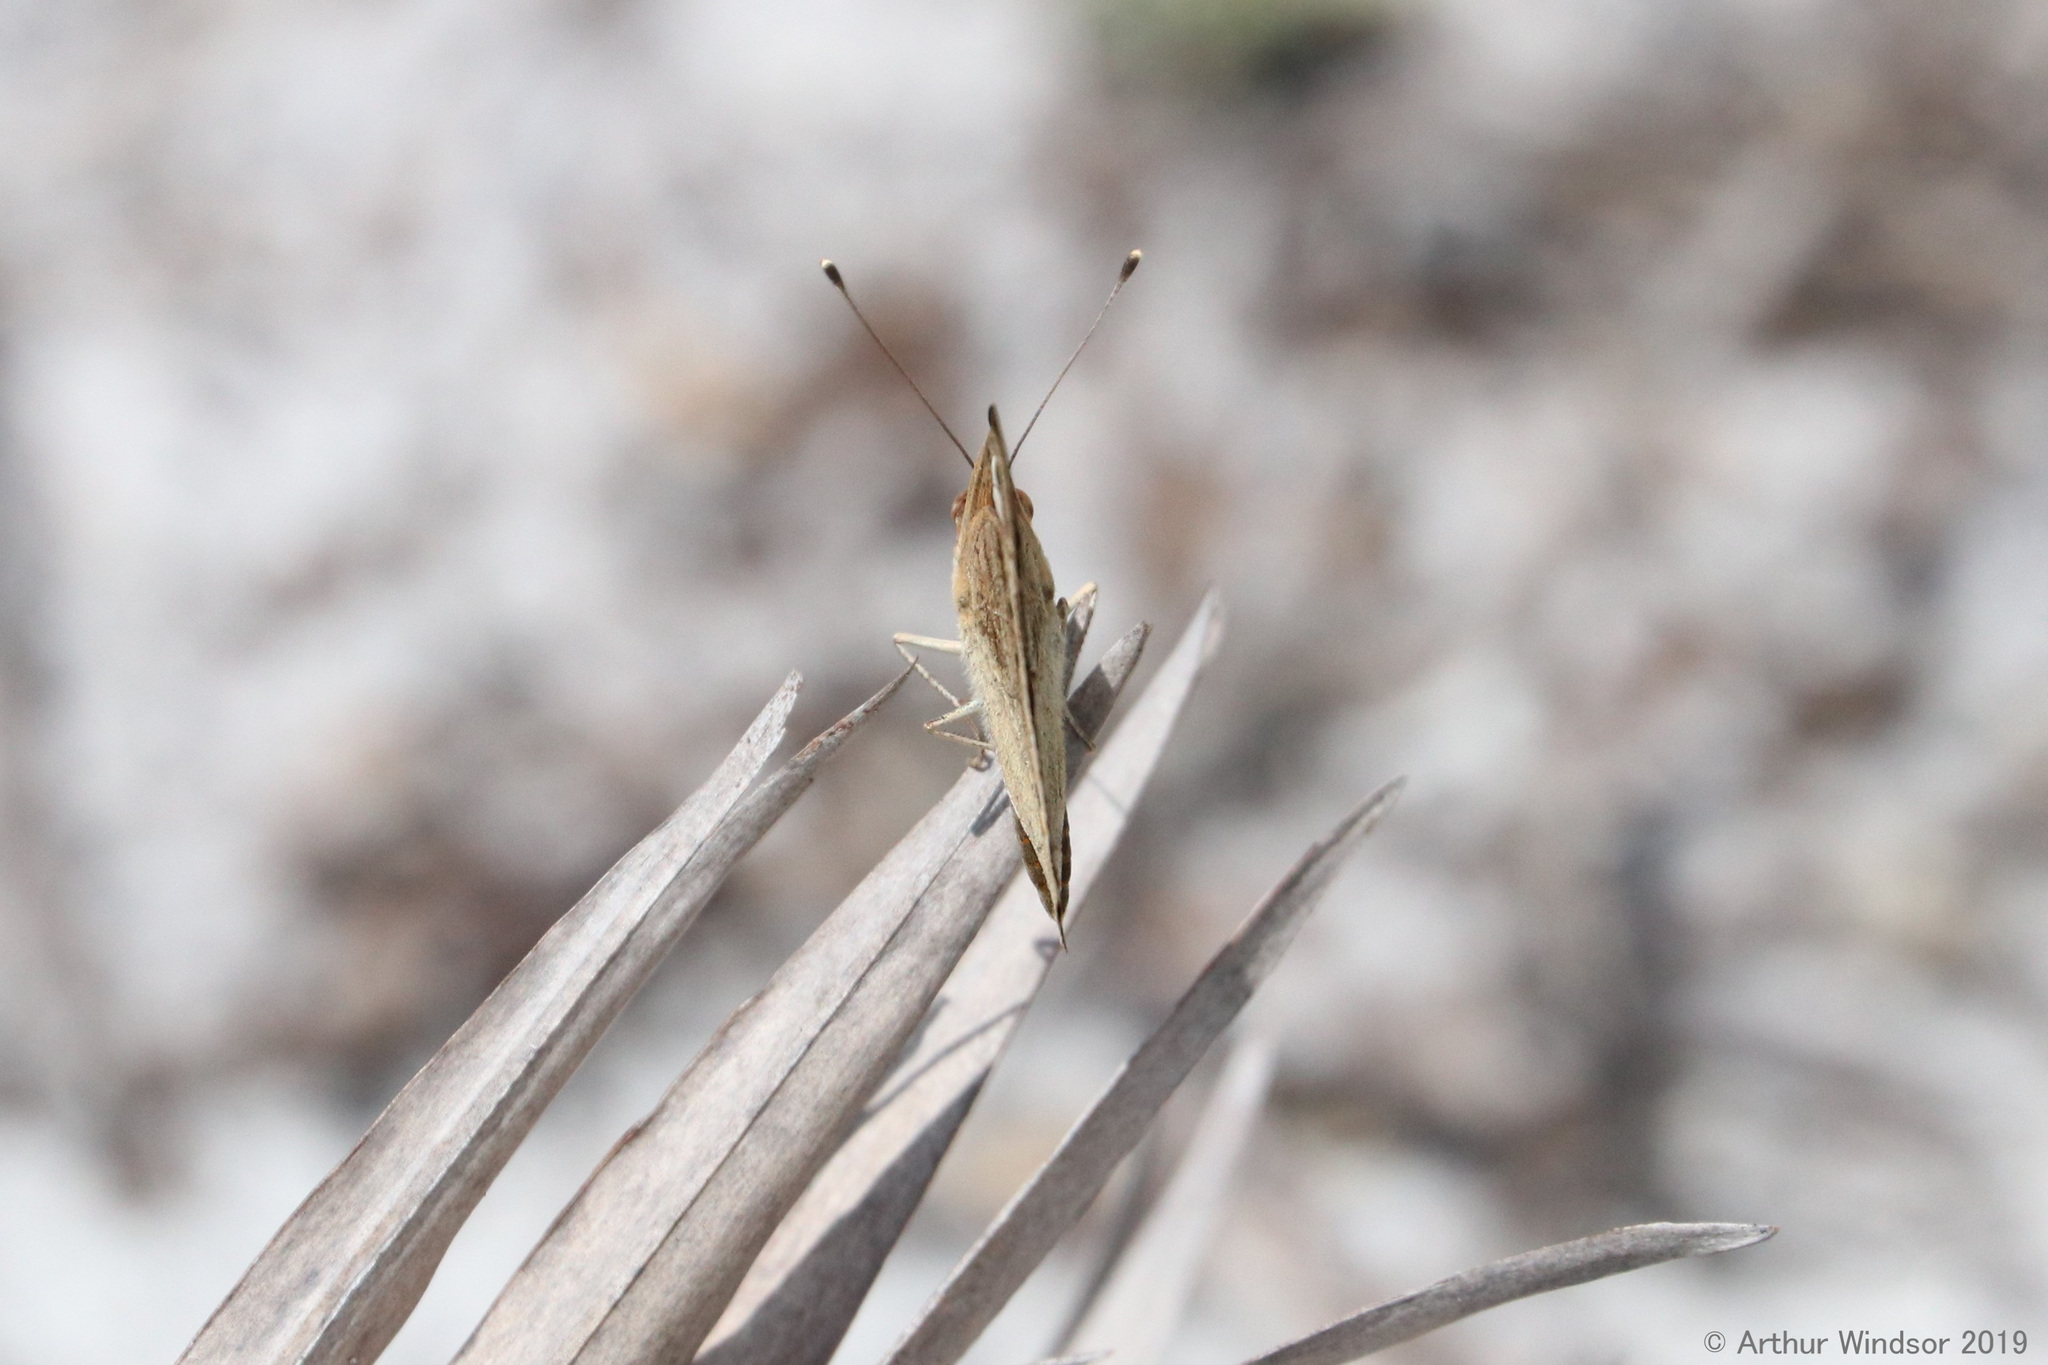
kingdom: Animalia
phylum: Arthropoda
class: Insecta
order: Lepidoptera
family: Nymphalidae
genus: Junonia
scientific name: Junonia coenia
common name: Common buckeye
